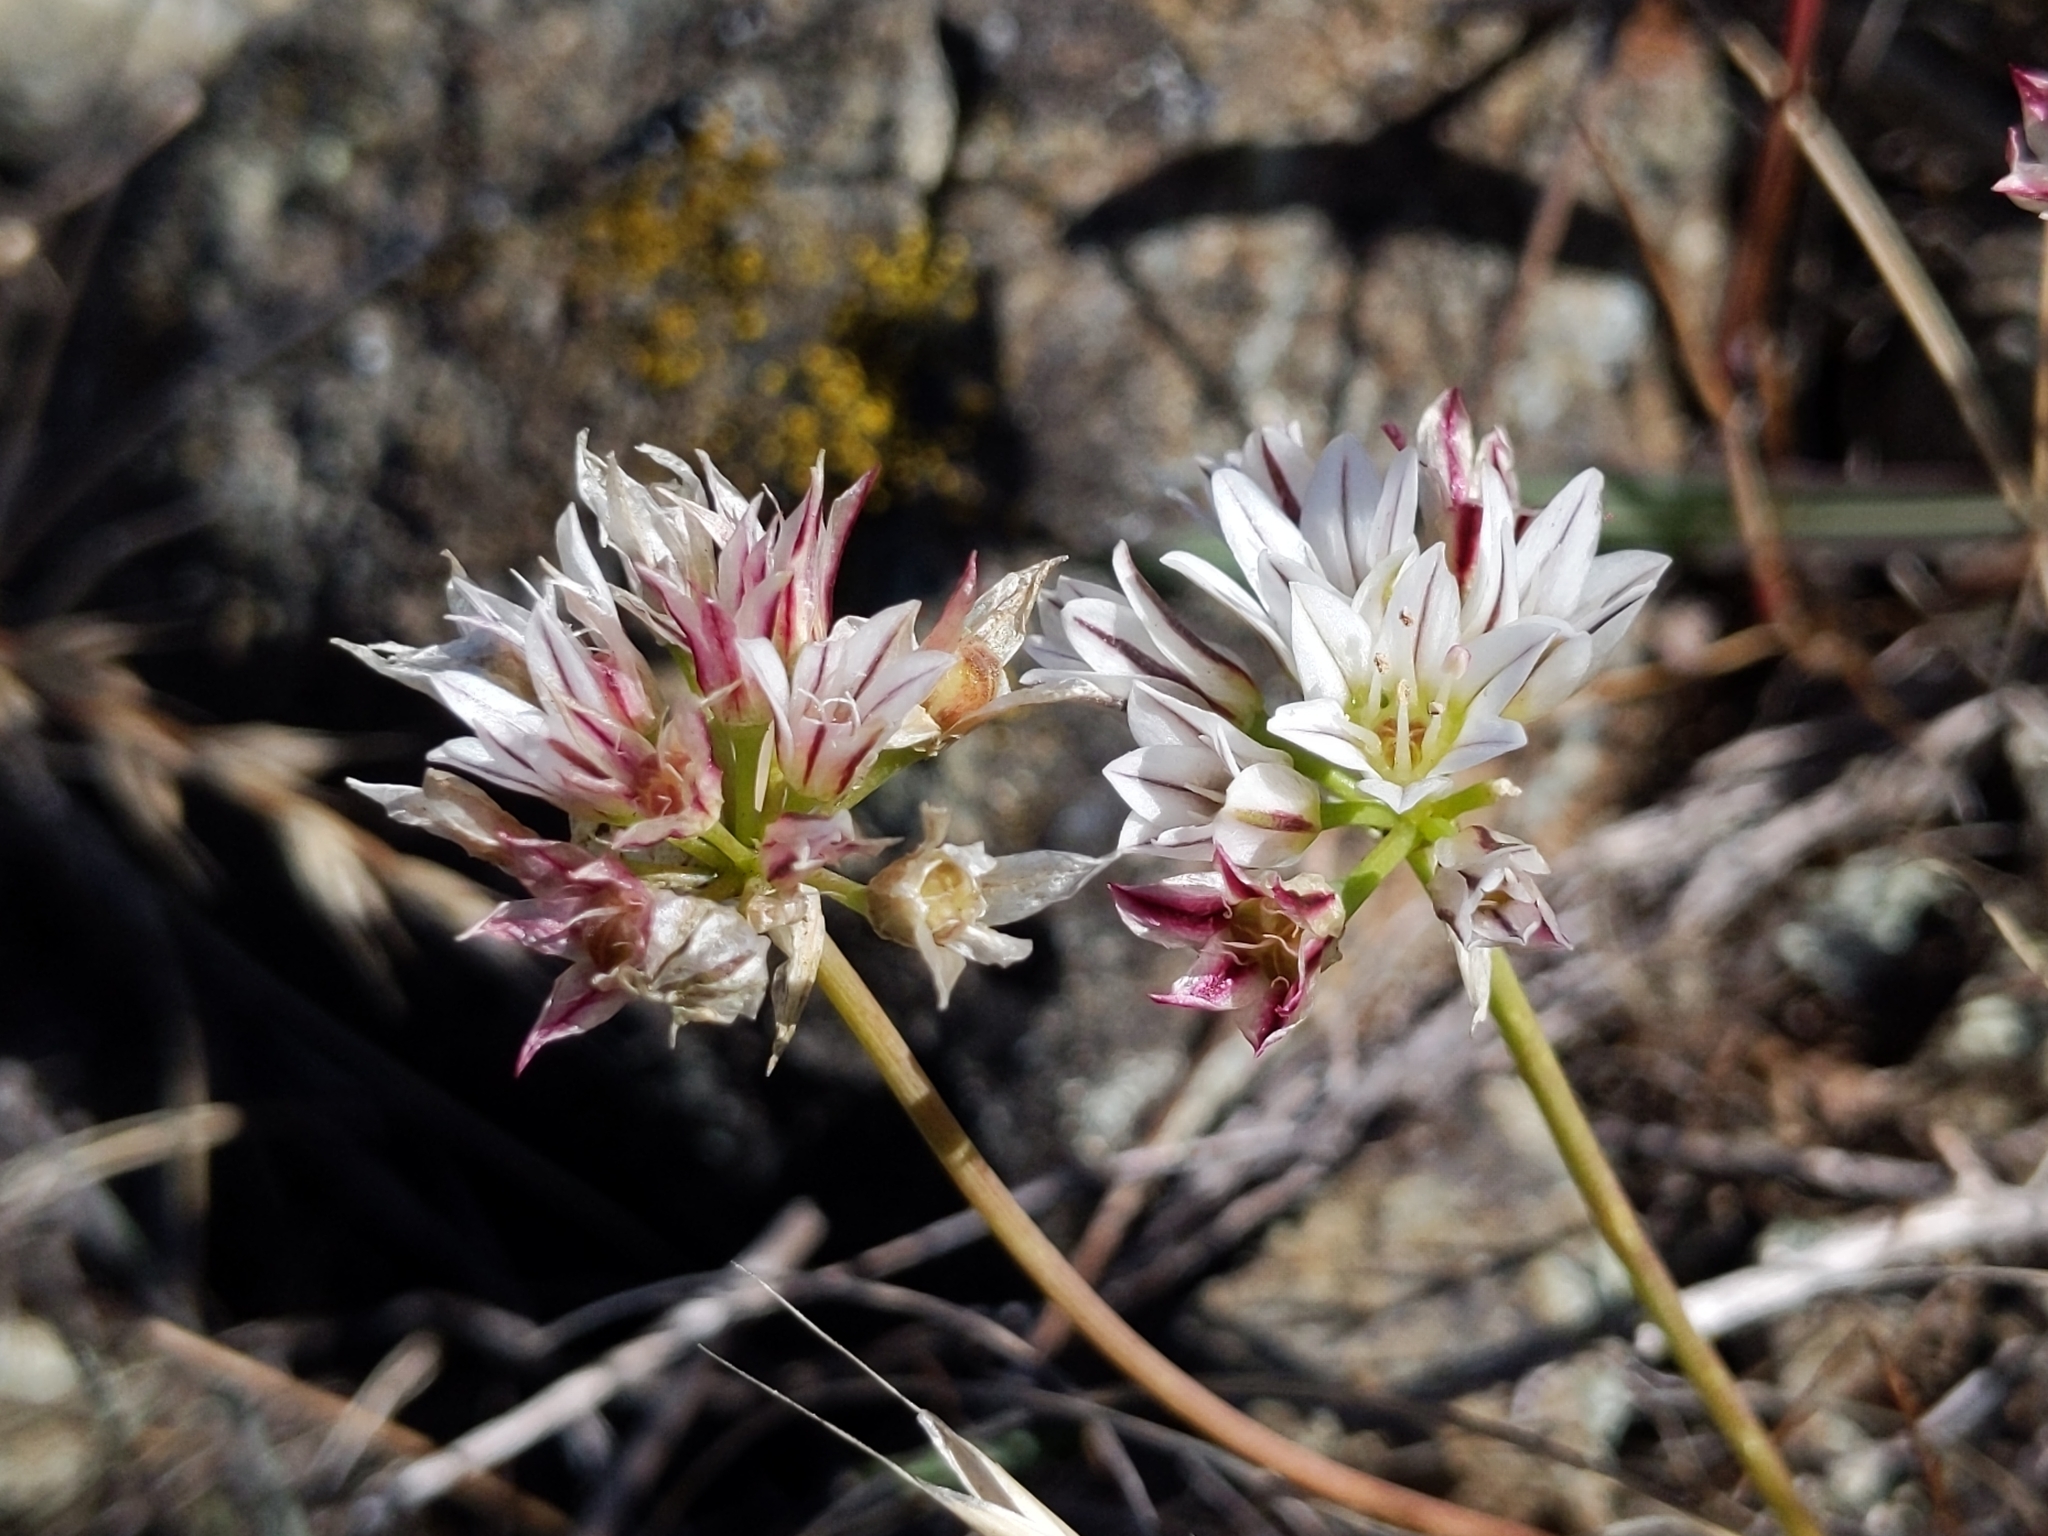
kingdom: Plantae
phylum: Tracheophyta
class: Liliopsida
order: Asparagales
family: Amaryllidaceae
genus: Allium
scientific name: Allium lacunosum
